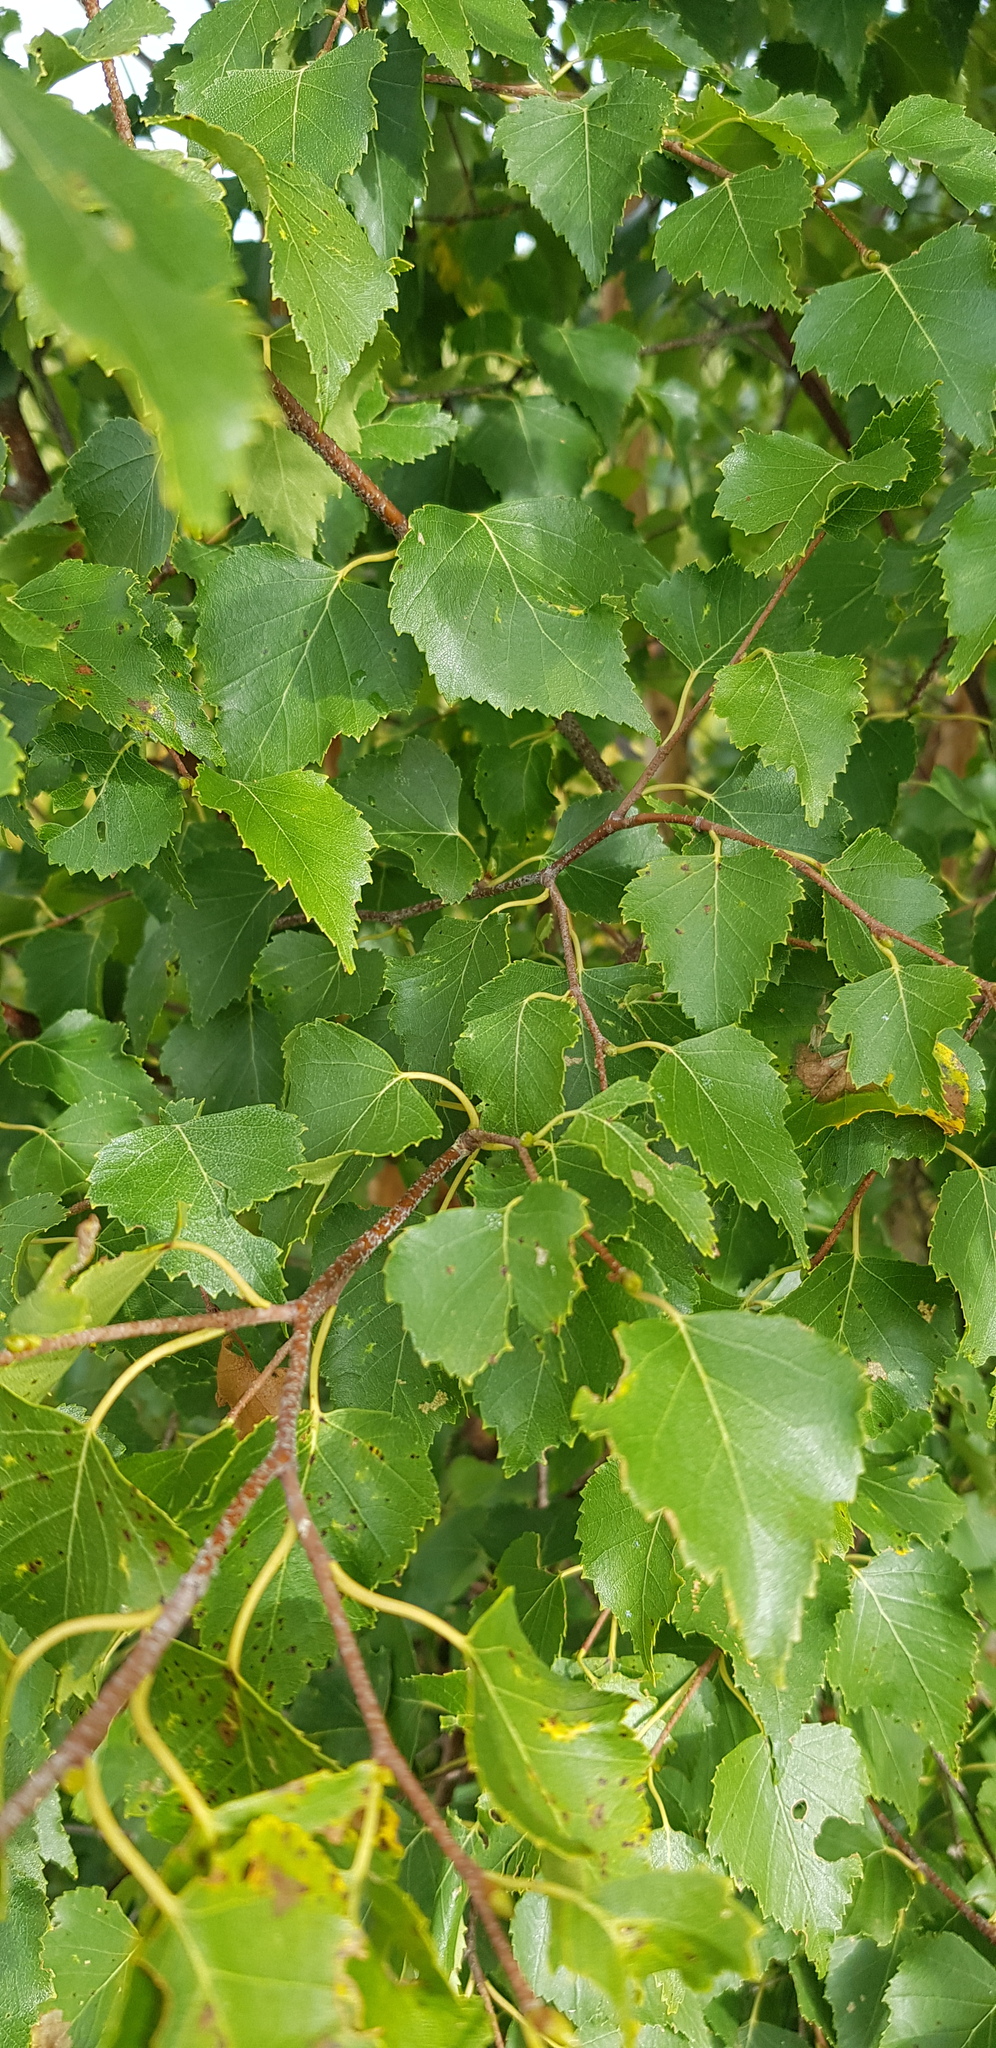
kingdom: Plantae
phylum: Tracheophyta
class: Magnoliopsida
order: Fagales
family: Betulaceae
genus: Betula
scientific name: Betula pendula
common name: Silver birch
